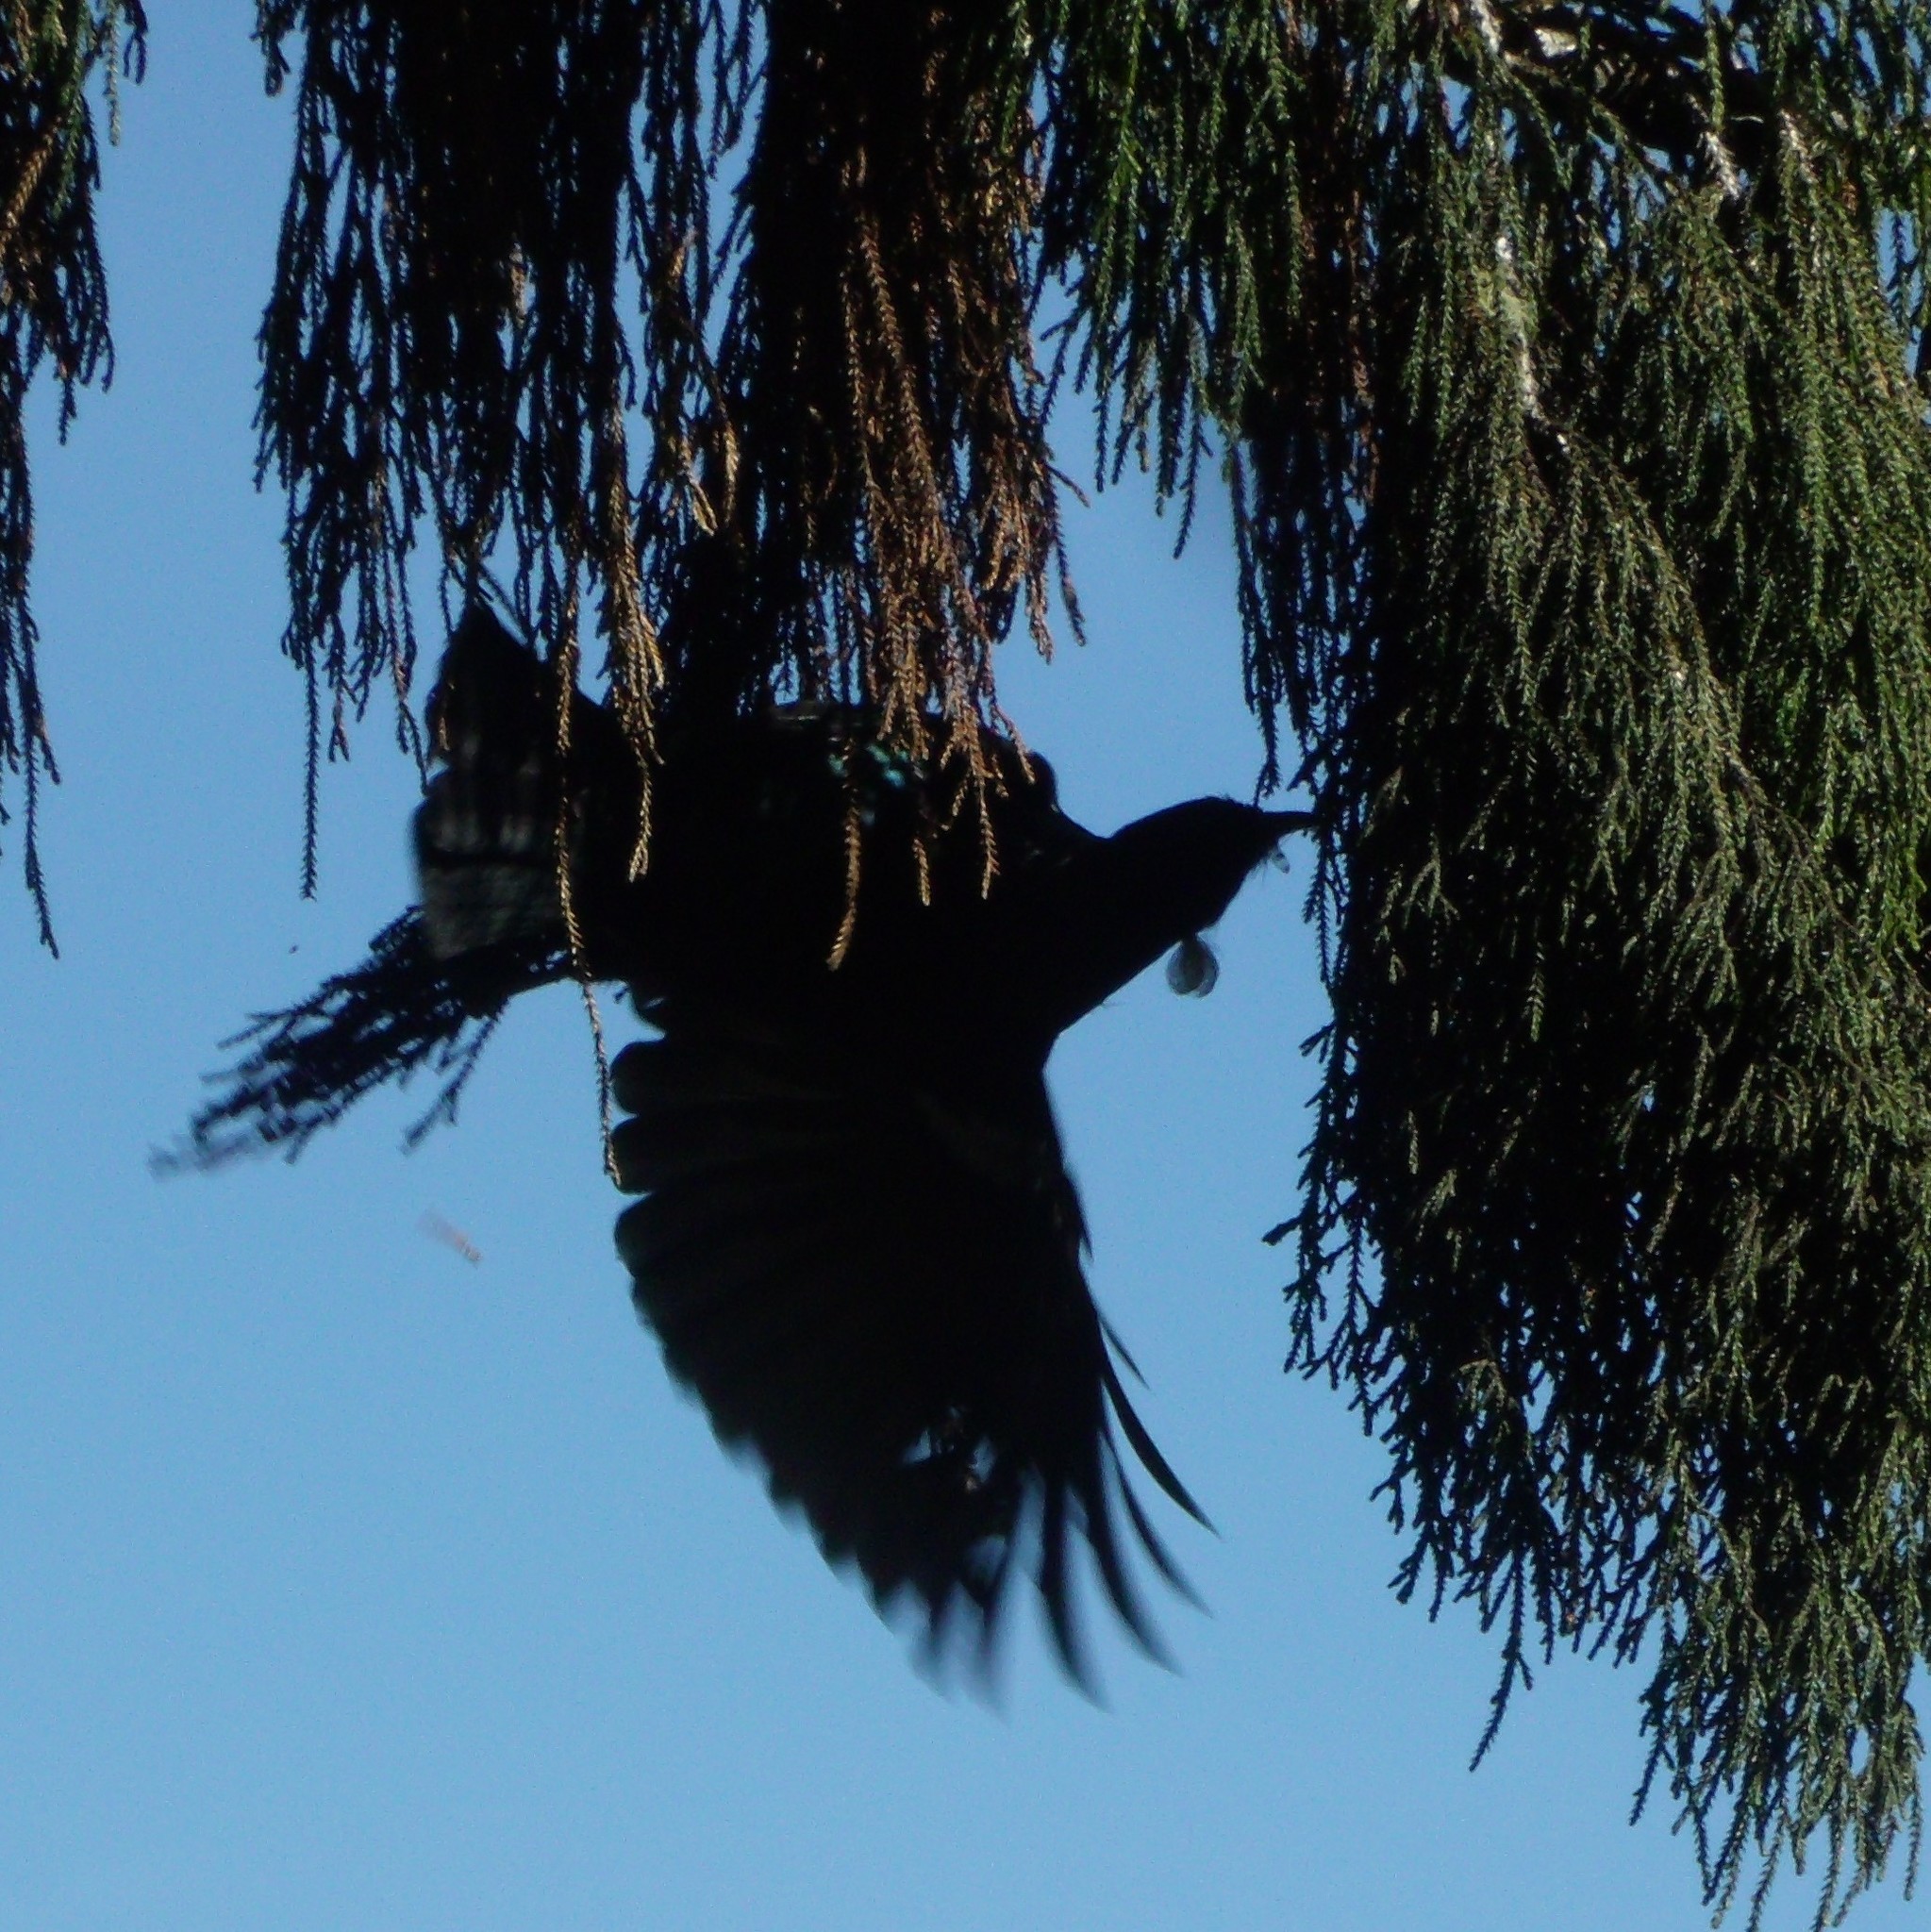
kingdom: Animalia
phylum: Chordata
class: Aves
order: Passeriformes
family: Meliphagidae
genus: Prosthemadera
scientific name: Prosthemadera novaeseelandiae
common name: Tui
